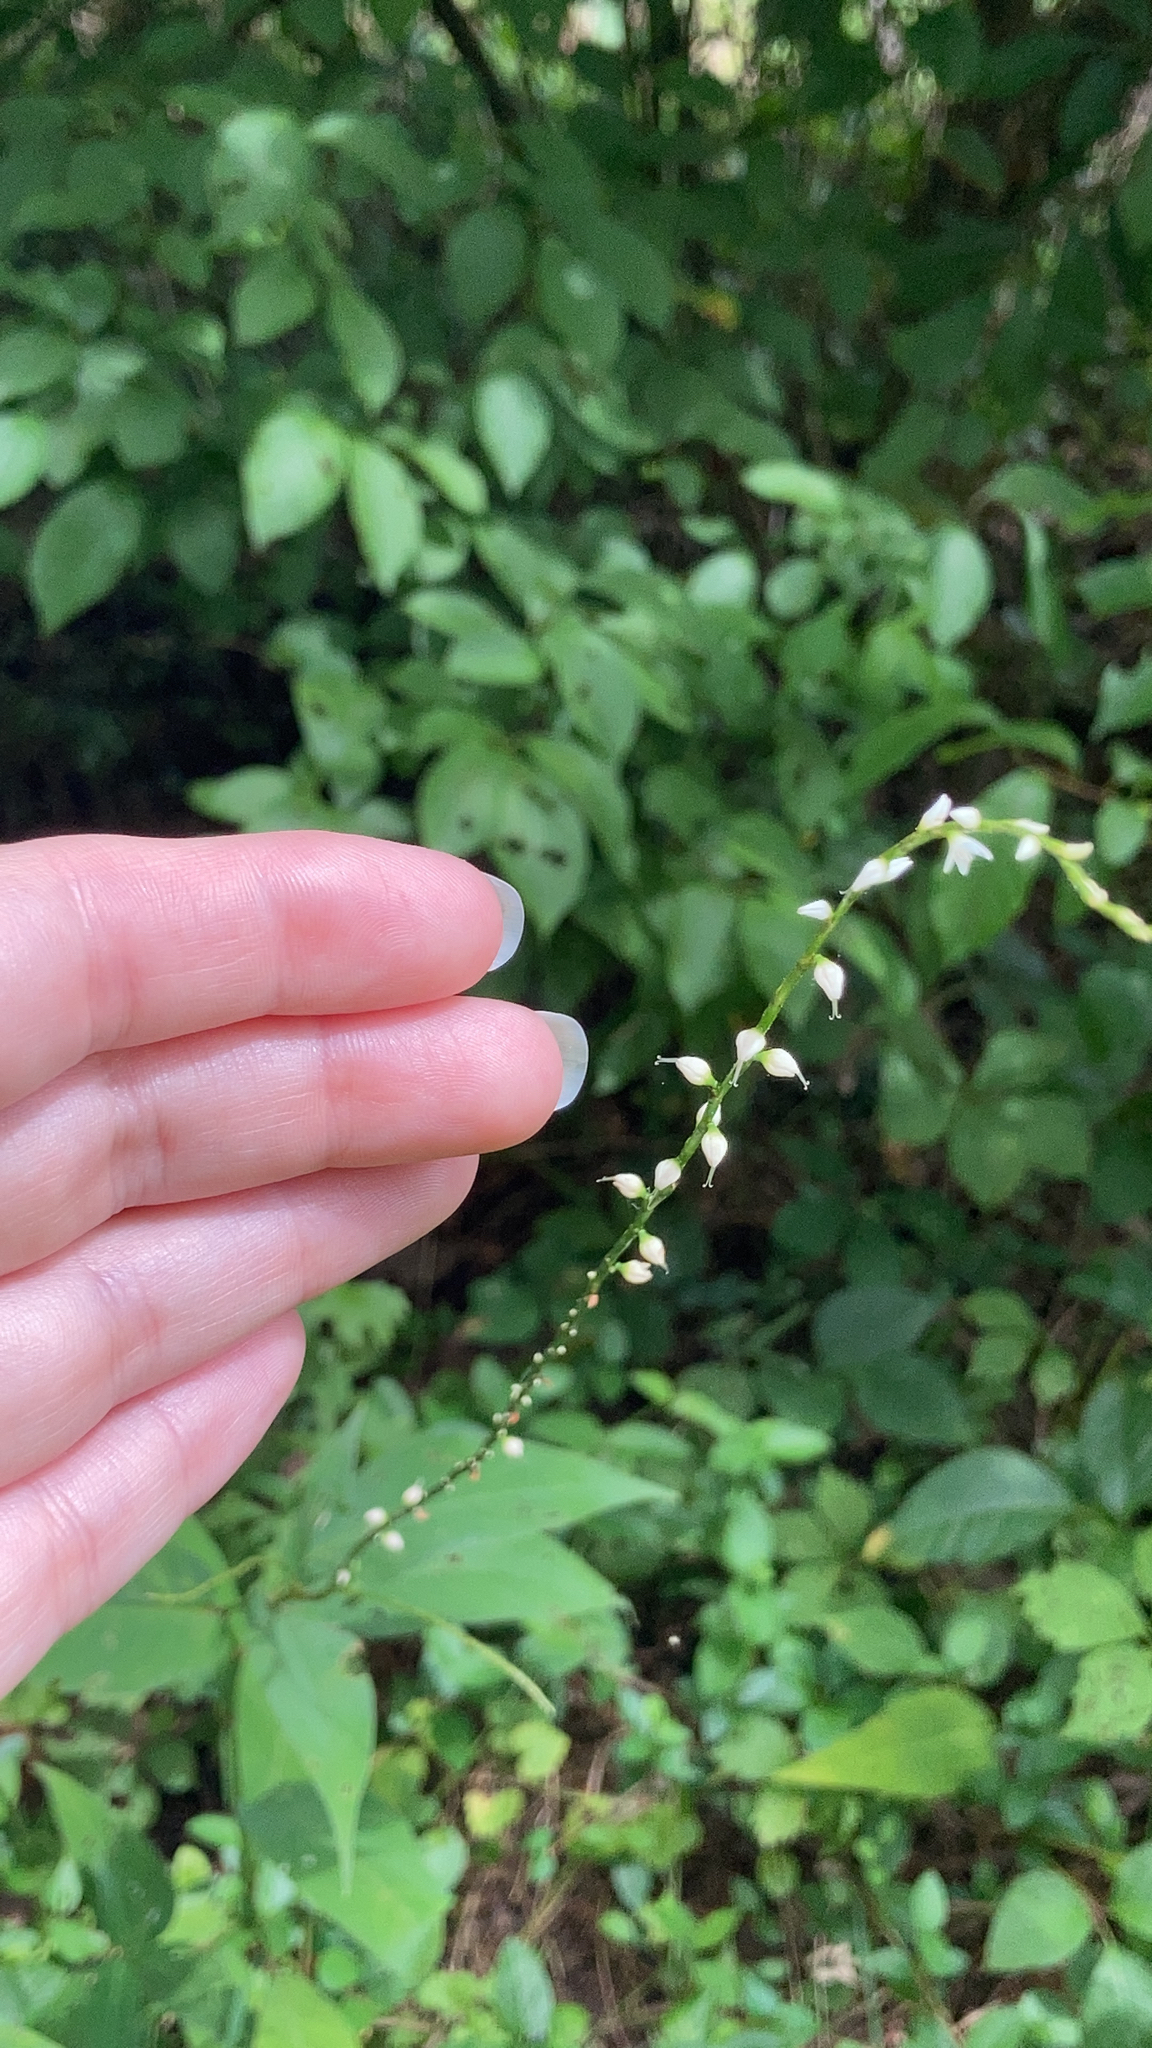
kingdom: Plantae
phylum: Tracheophyta
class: Magnoliopsida
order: Caryophyllales
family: Polygonaceae
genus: Persicaria
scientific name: Persicaria virginiana
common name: Jumpseed
